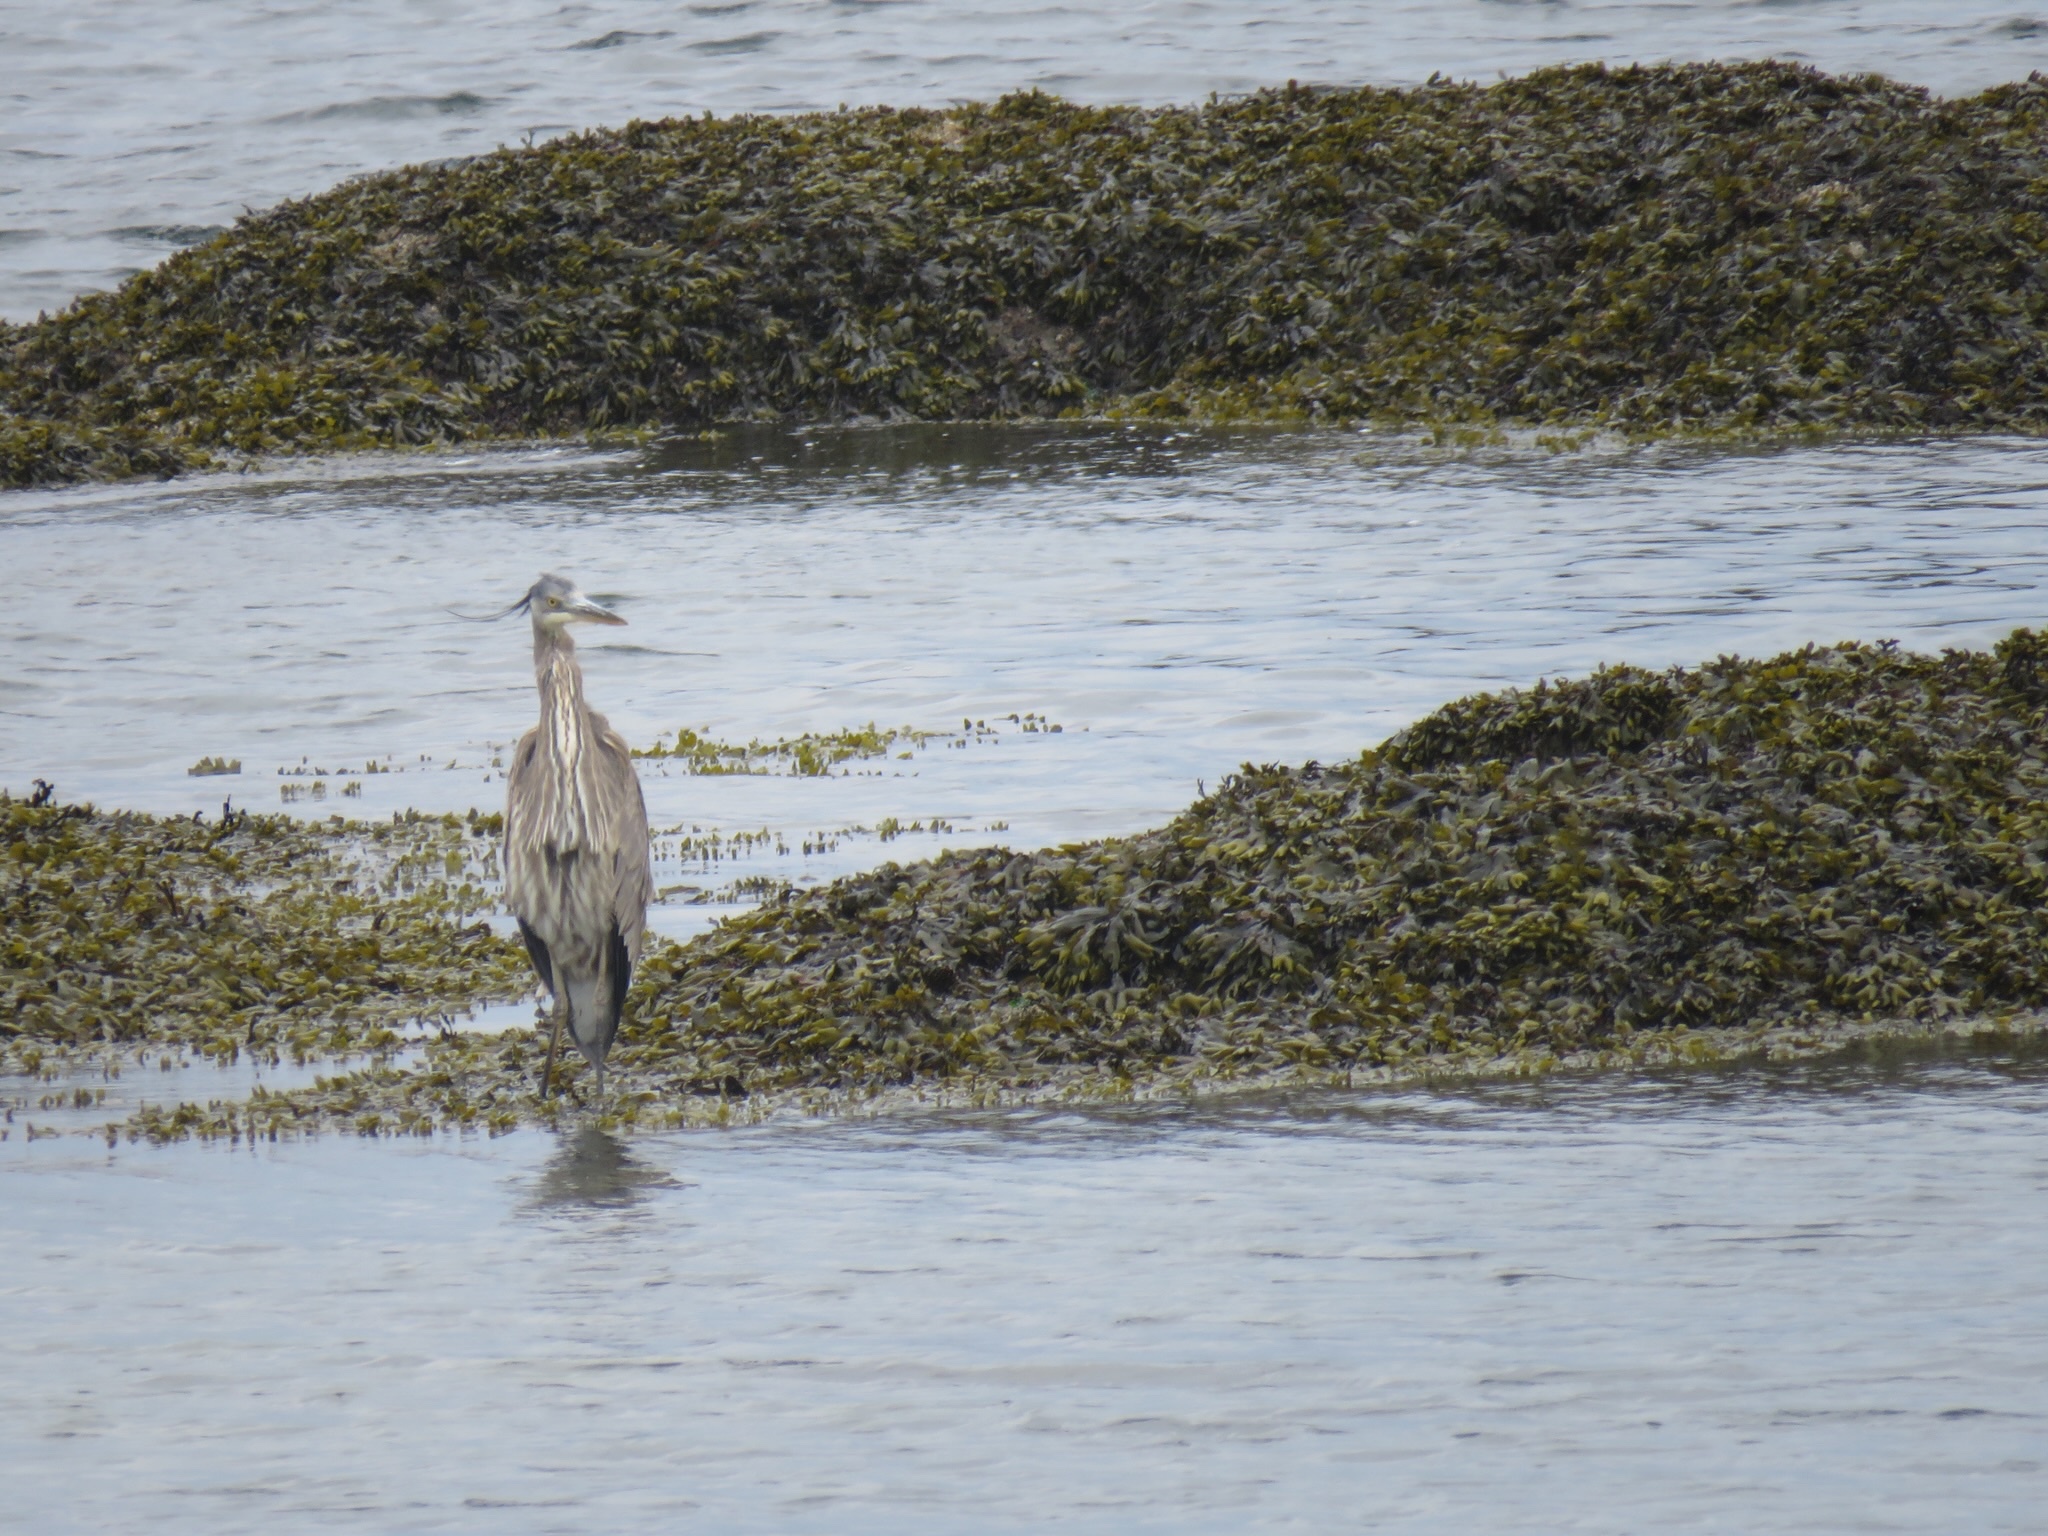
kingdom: Animalia
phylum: Chordata
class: Aves
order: Pelecaniformes
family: Ardeidae
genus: Ardea
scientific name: Ardea herodias
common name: Great blue heron
